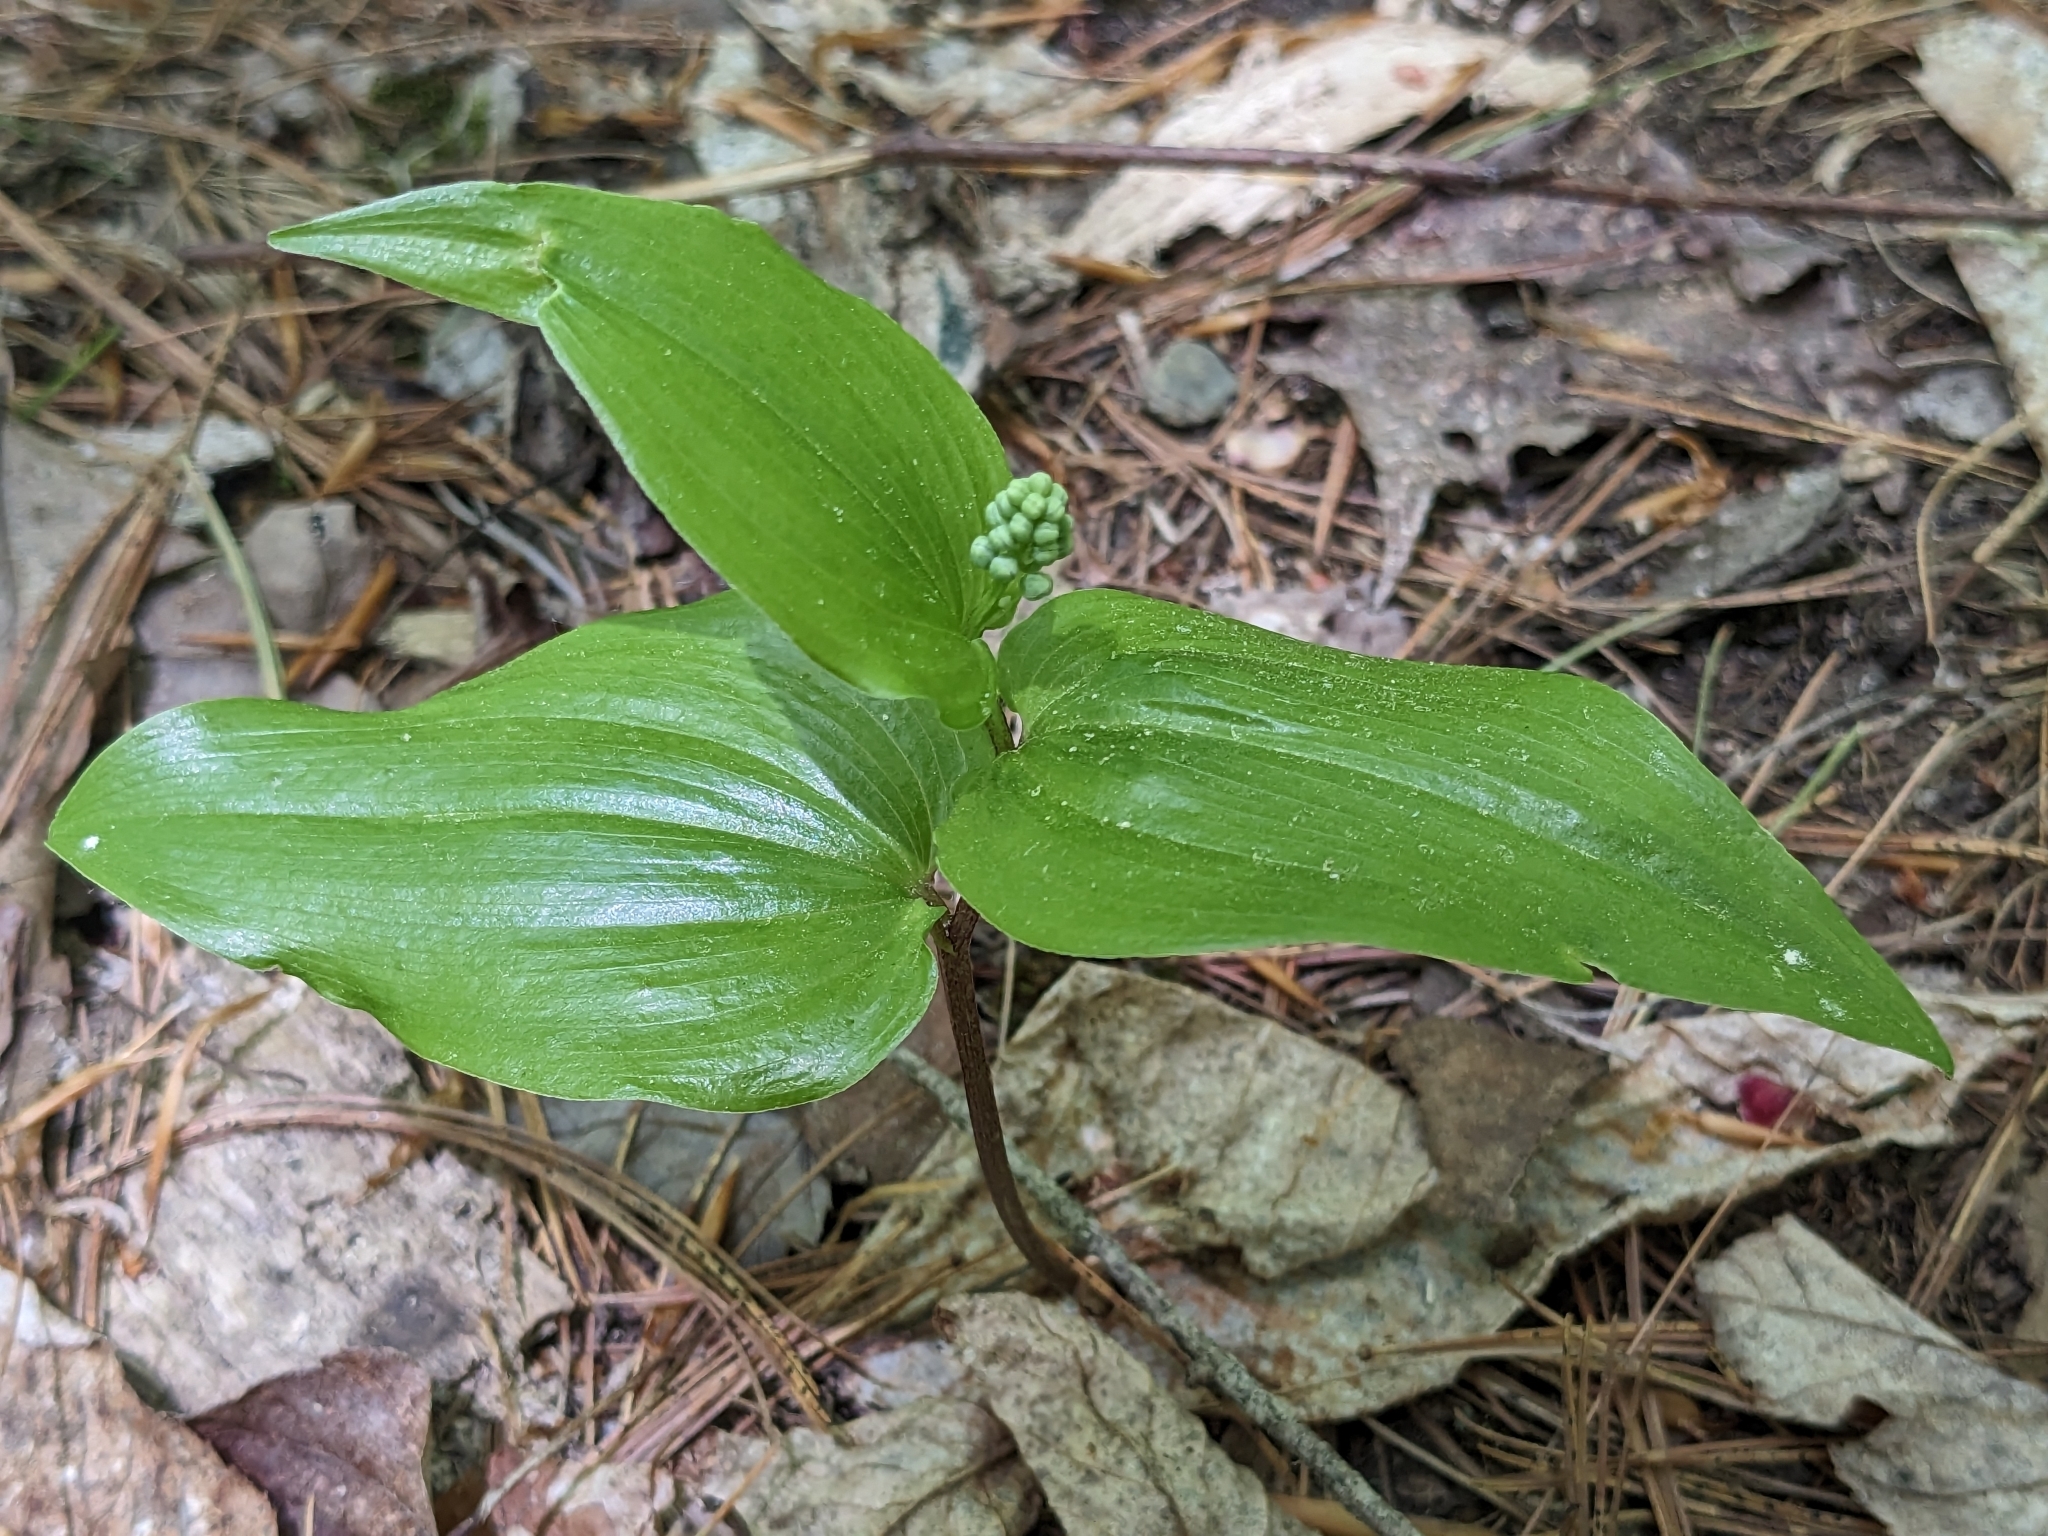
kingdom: Plantae
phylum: Tracheophyta
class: Liliopsida
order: Asparagales
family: Asparagaceae
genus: Maianthemum
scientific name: Maianthemum canadense
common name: False lily-of-the-valley
